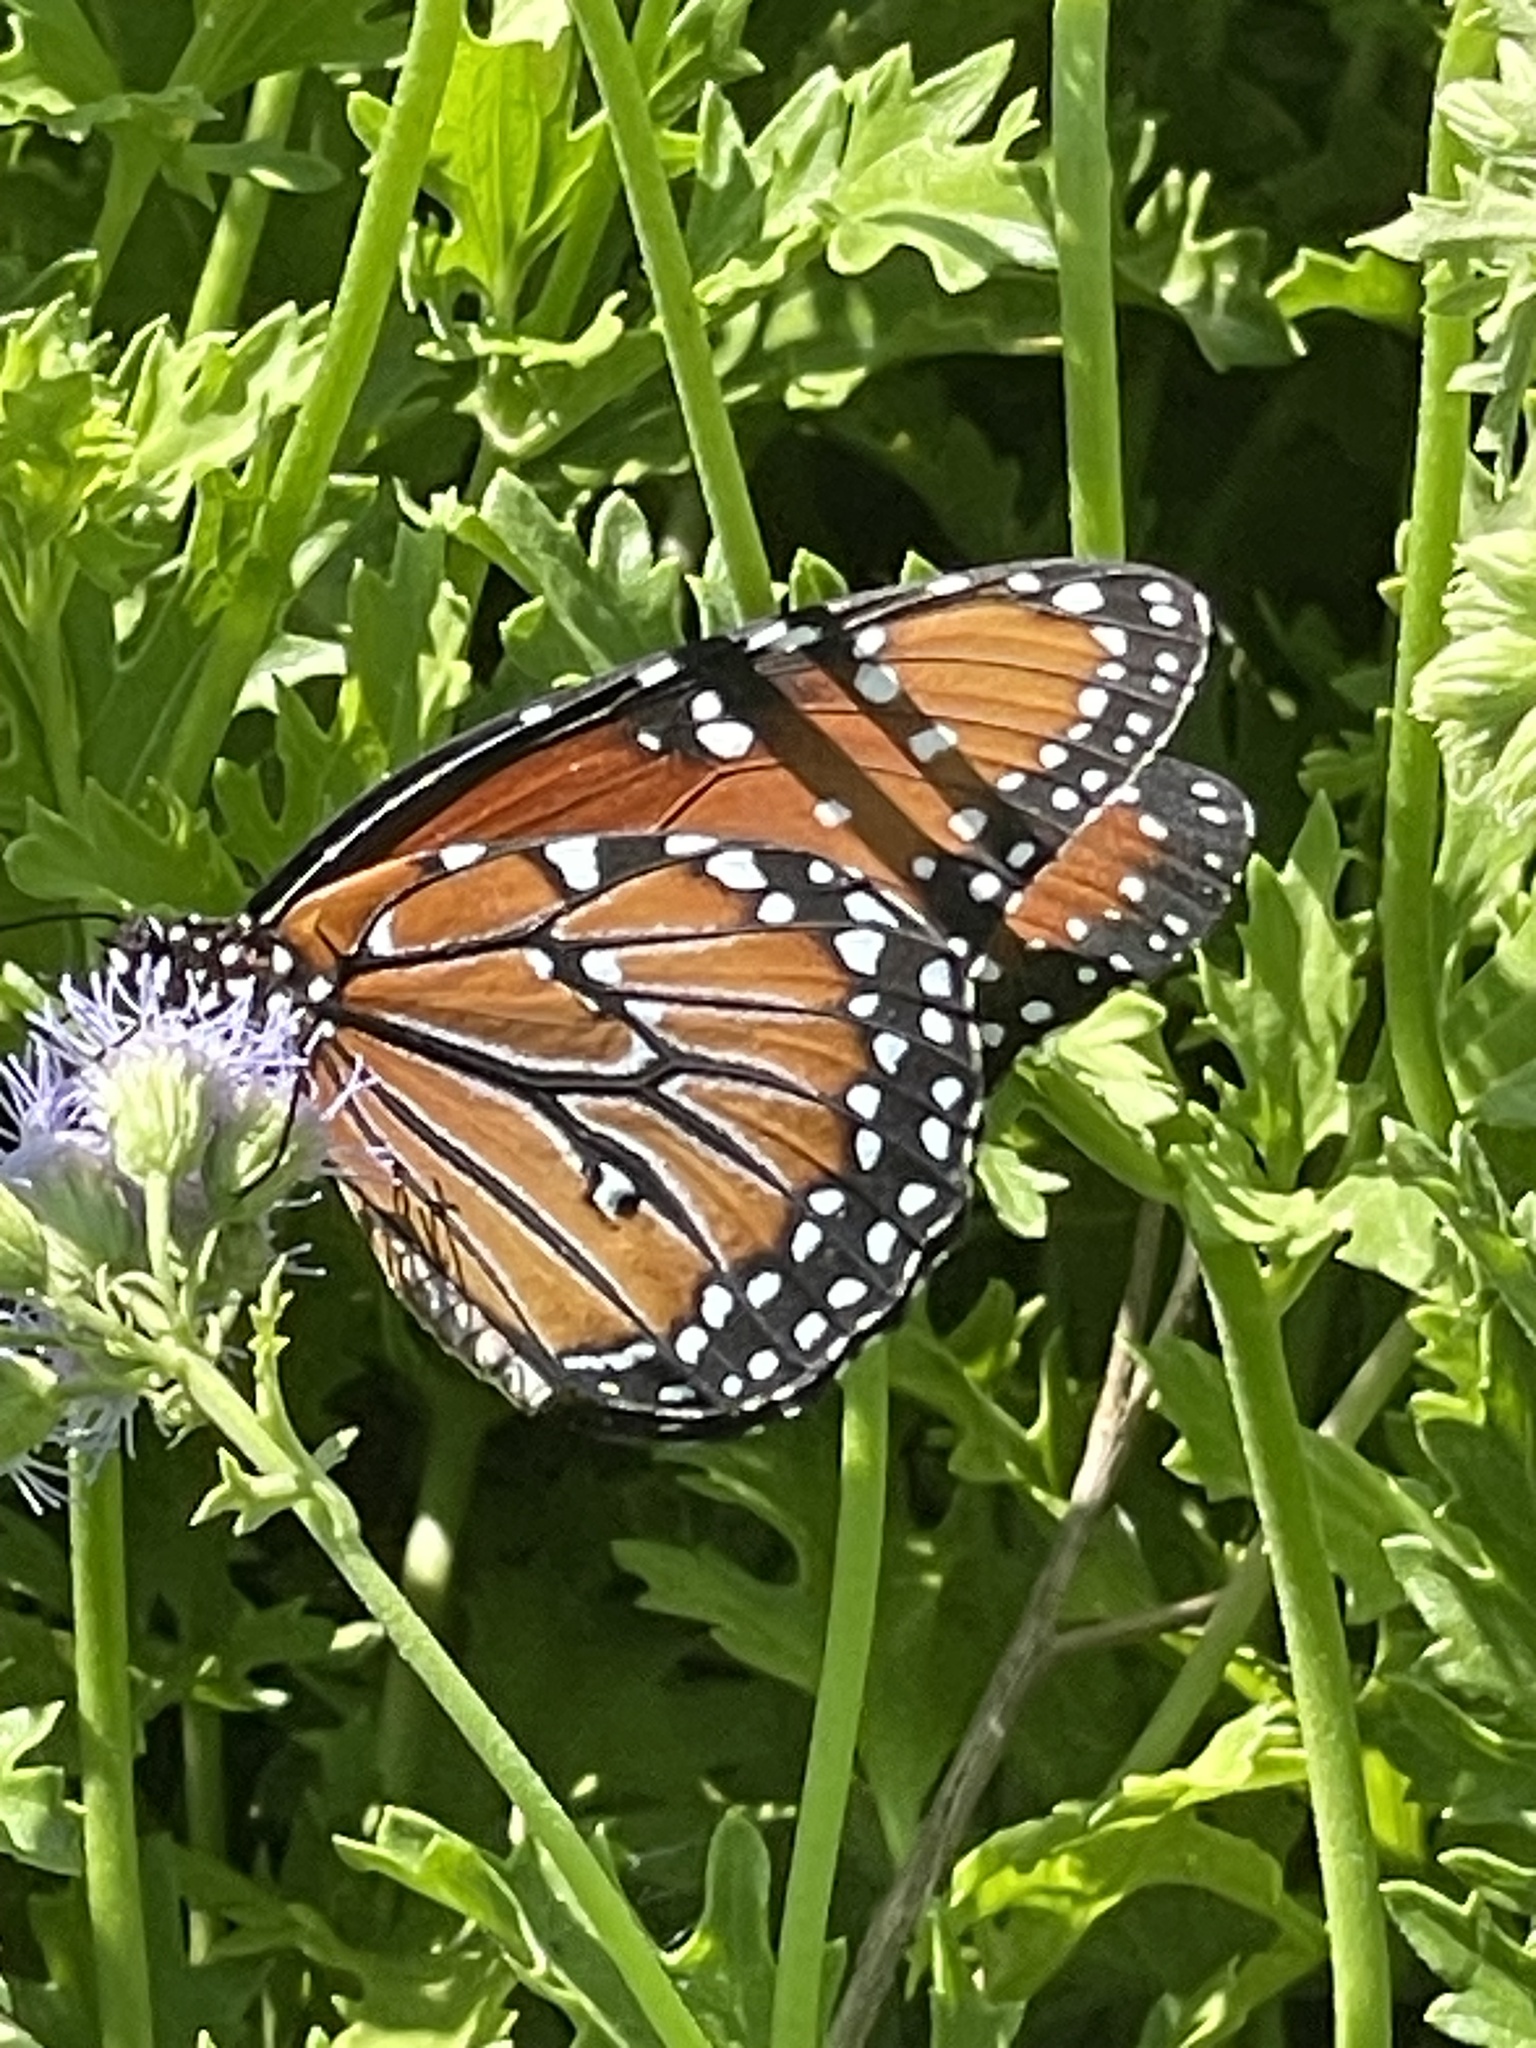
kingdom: Animalia
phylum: Arthropoda
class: Insecta
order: Lepidoptera
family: Nymphalidae
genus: Danaus
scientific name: Danaus gilippus
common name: Queen
